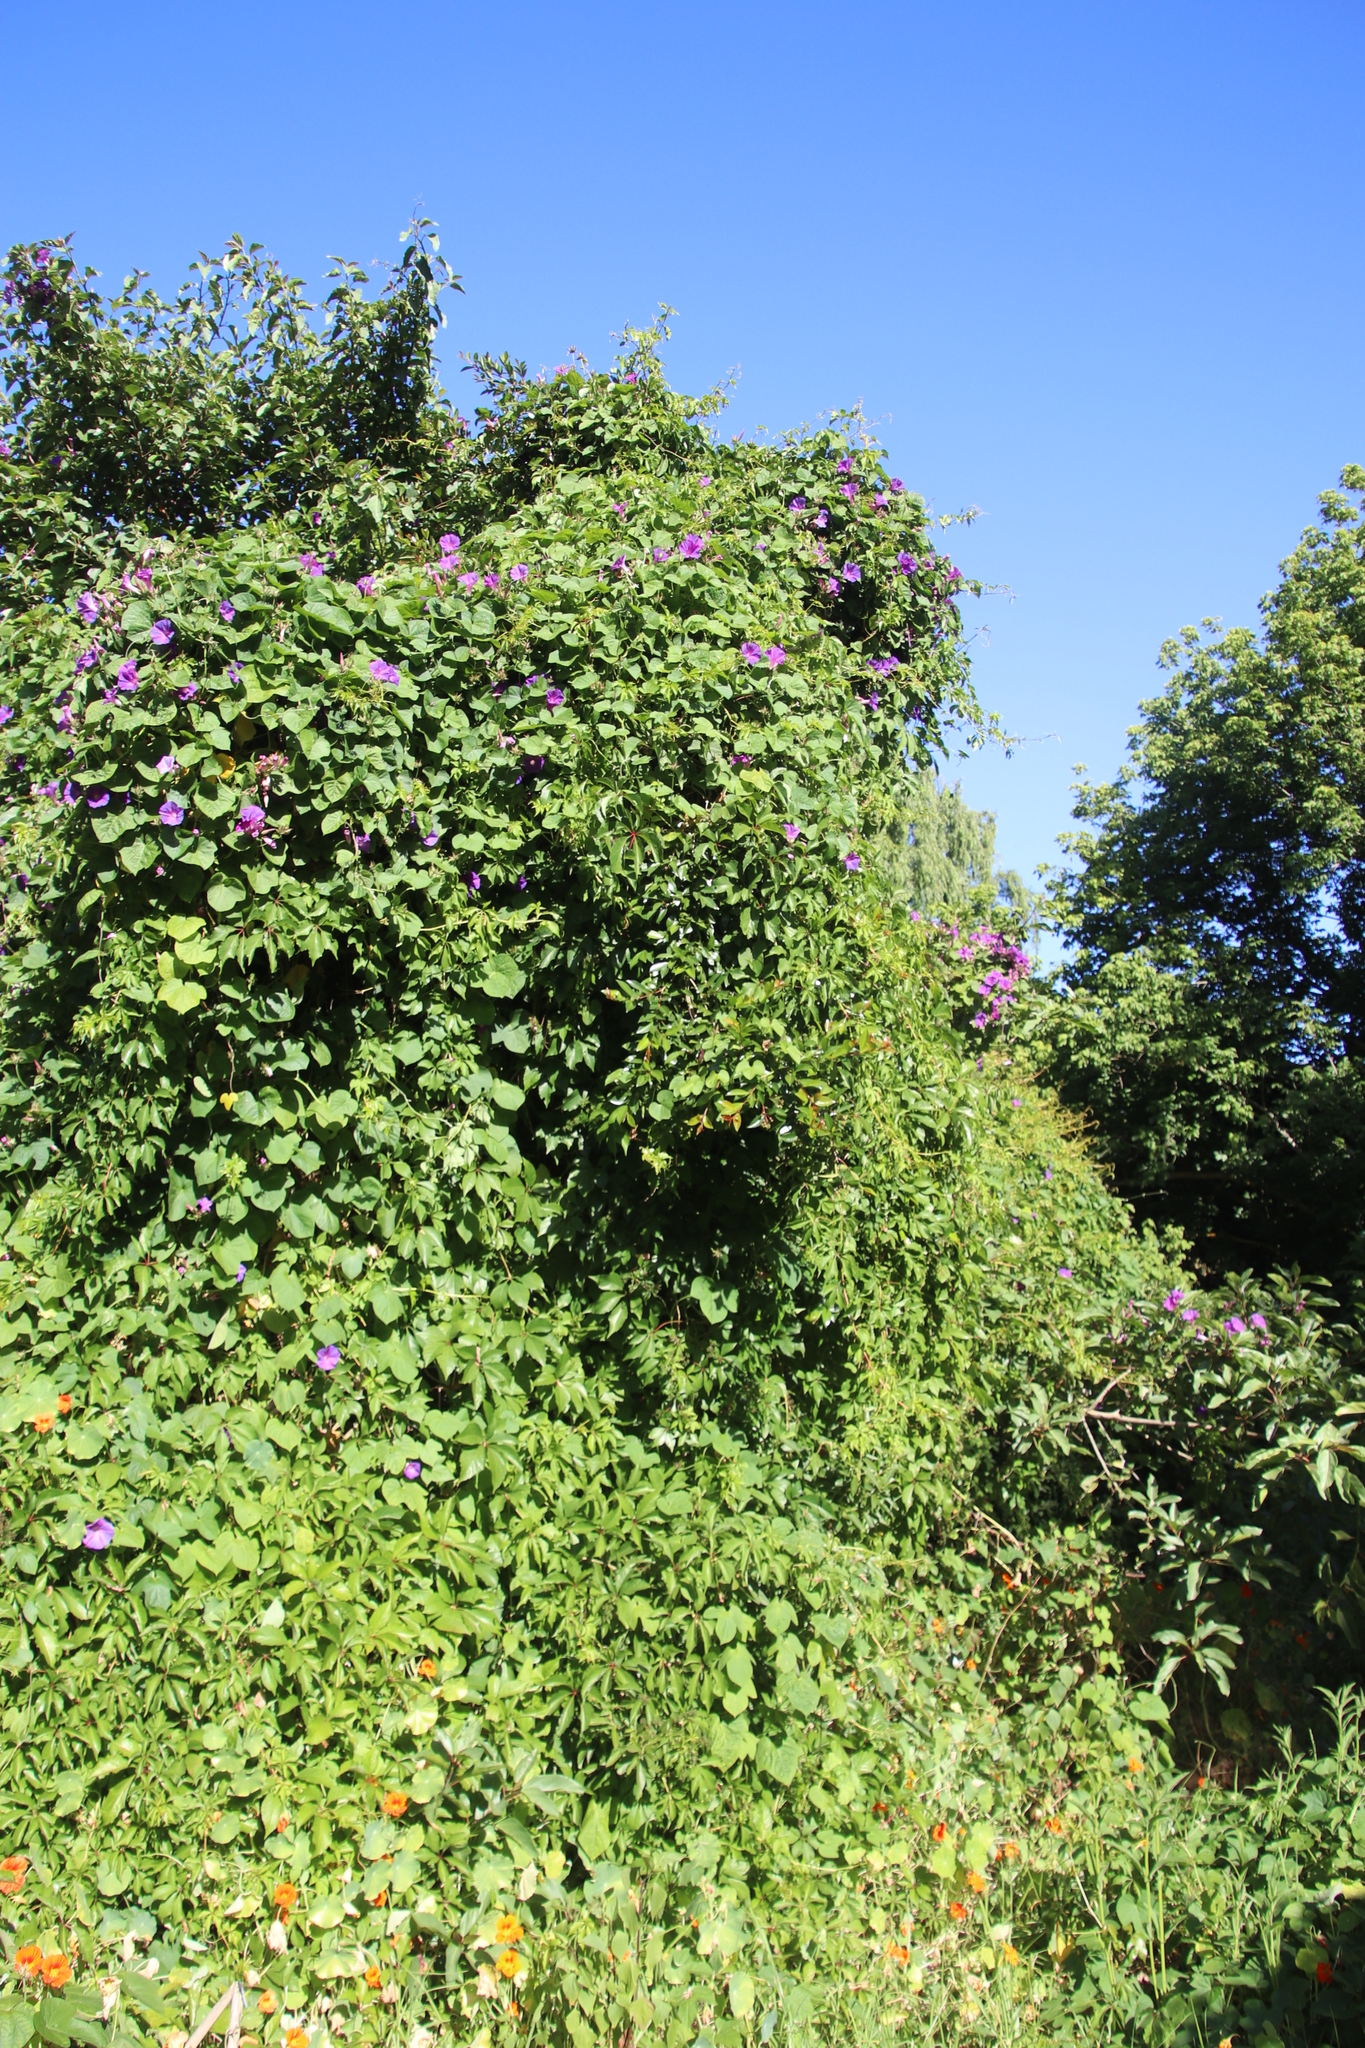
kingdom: Plantae
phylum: Tracheophyta
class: Magnoliopsida
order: Vitales
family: Vitaceae
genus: Parthenocissus
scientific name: Parthenocissus quinquefolia
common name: Virginia-creeper
